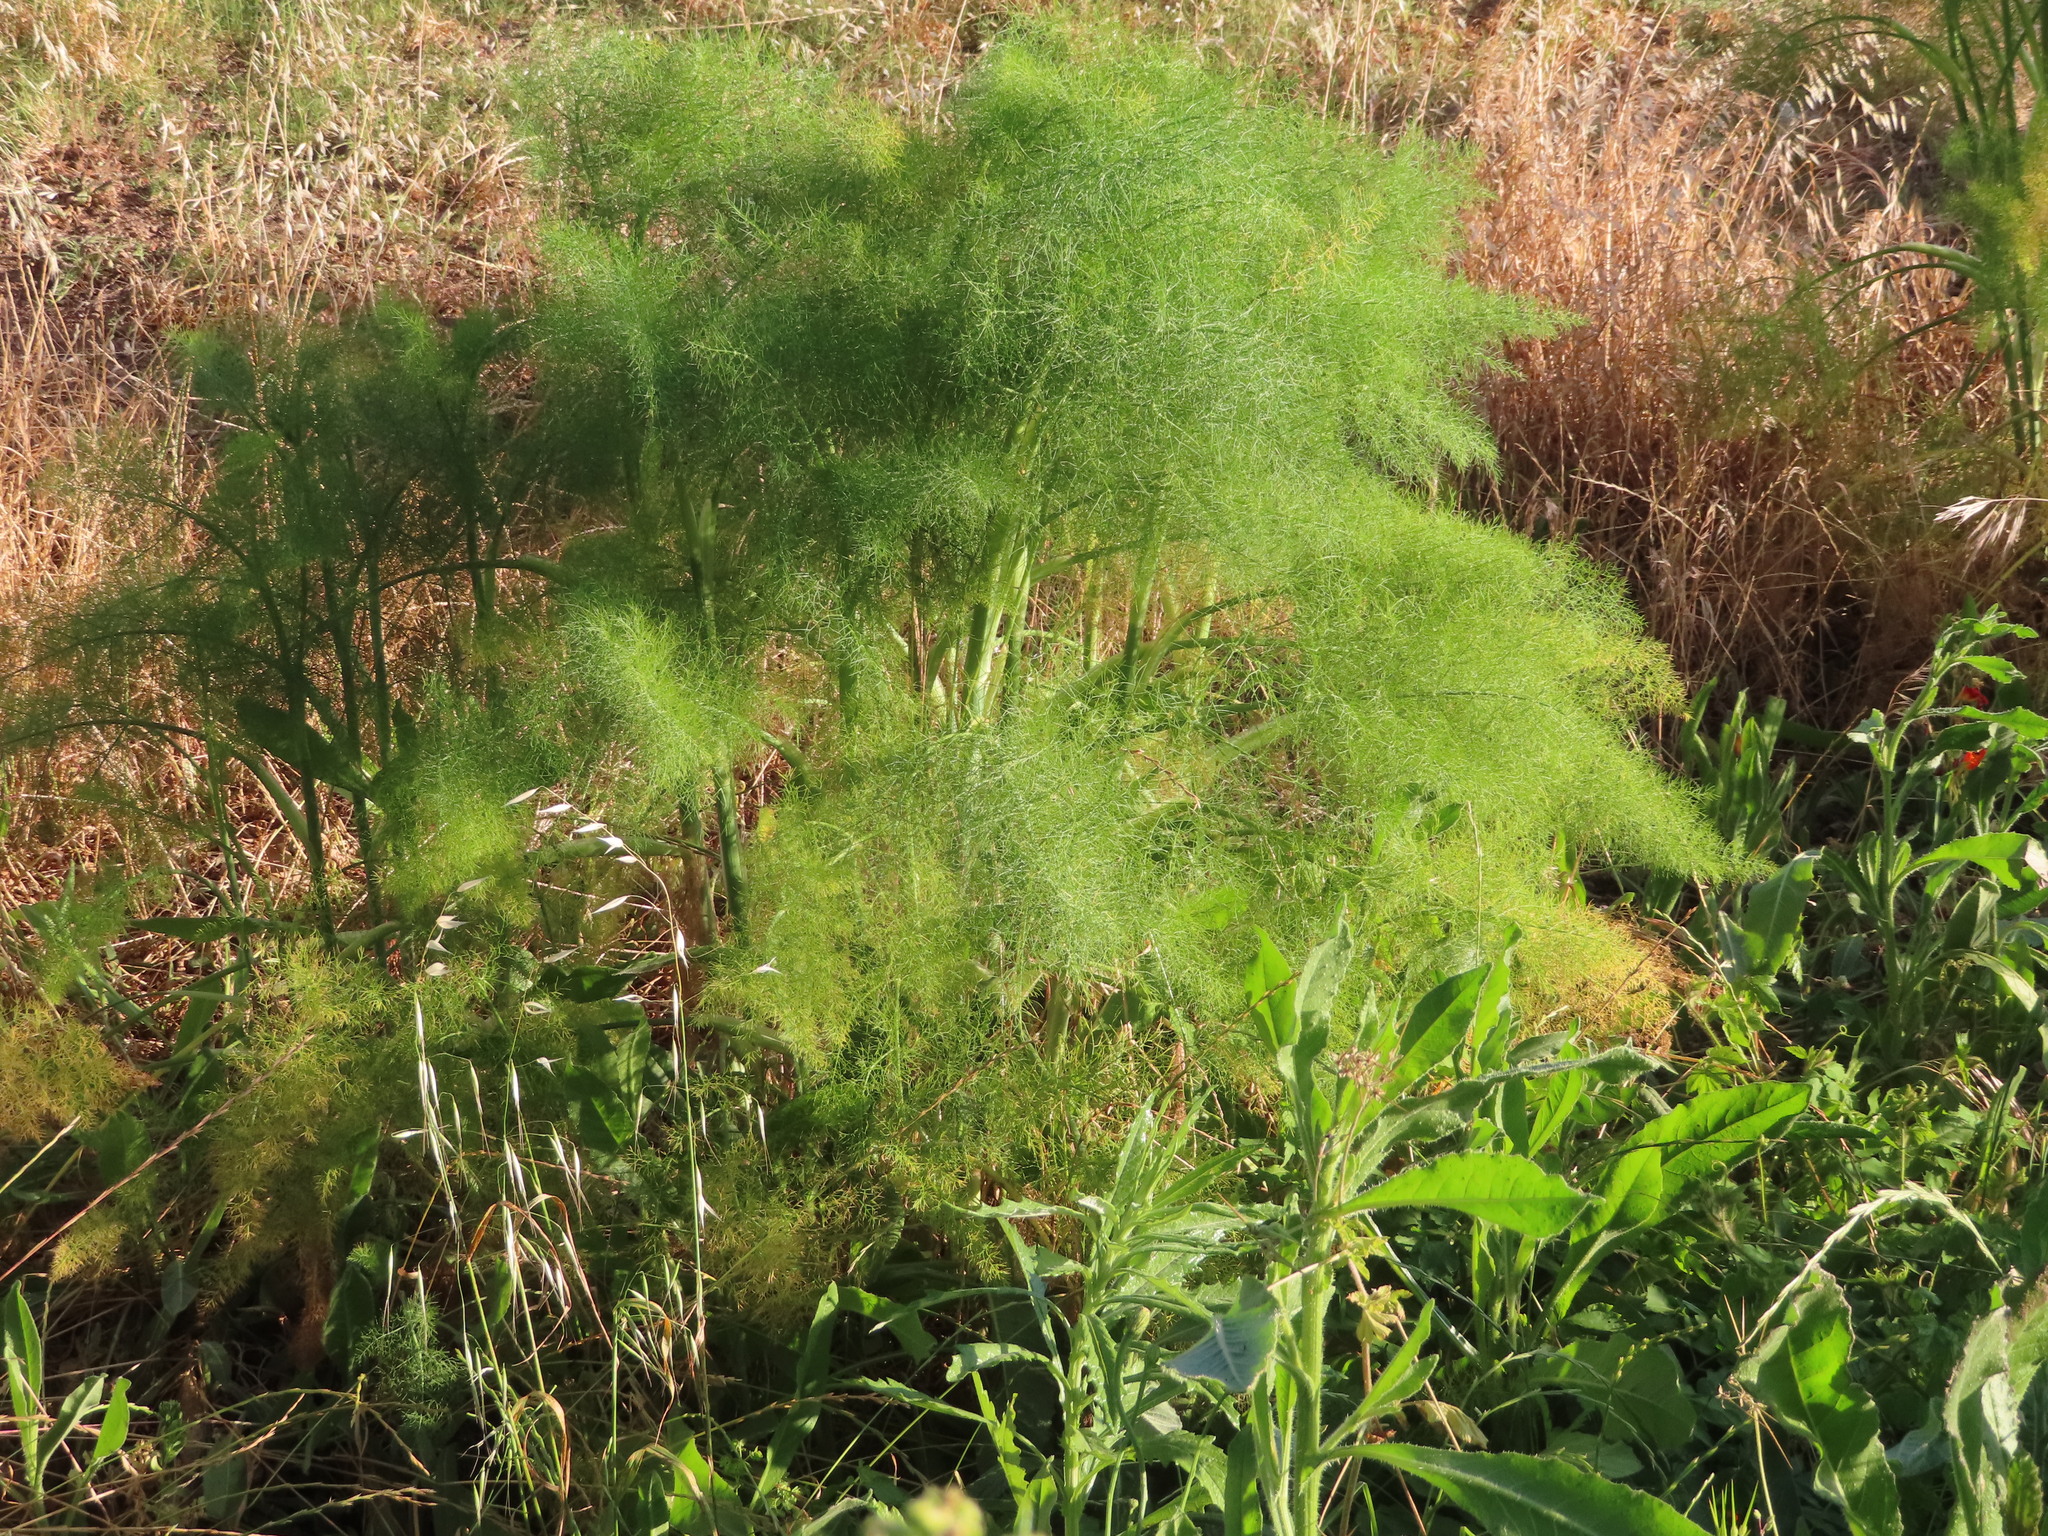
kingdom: Plantae
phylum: Tracheophyta
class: Magnoliopsida
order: Apiales
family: Apiaceae
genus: Foeniculum
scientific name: Foeniculum vulgare
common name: Fennel
